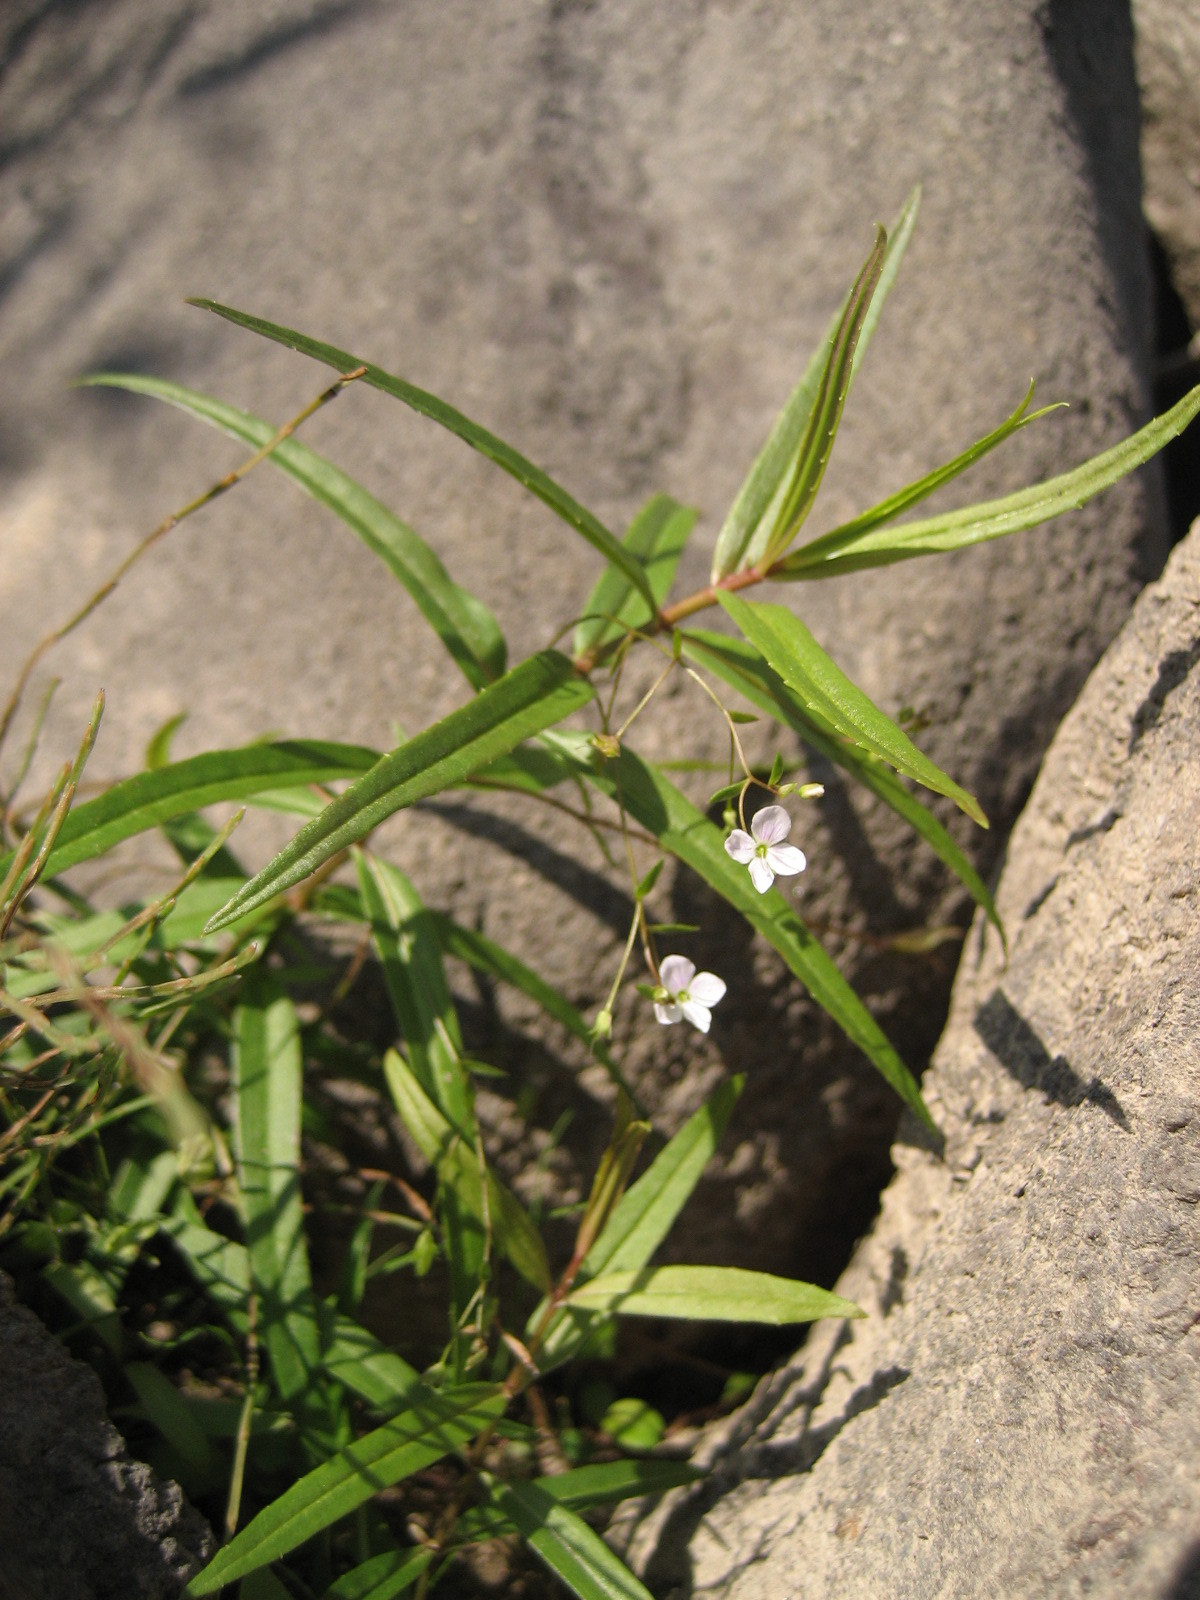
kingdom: Plantae
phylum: Tracheophyta
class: Magnoliopsida
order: Lamiales
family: Plantaginaceae
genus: Veronica
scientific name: Veronica scutellata
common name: Marsh speedwell
